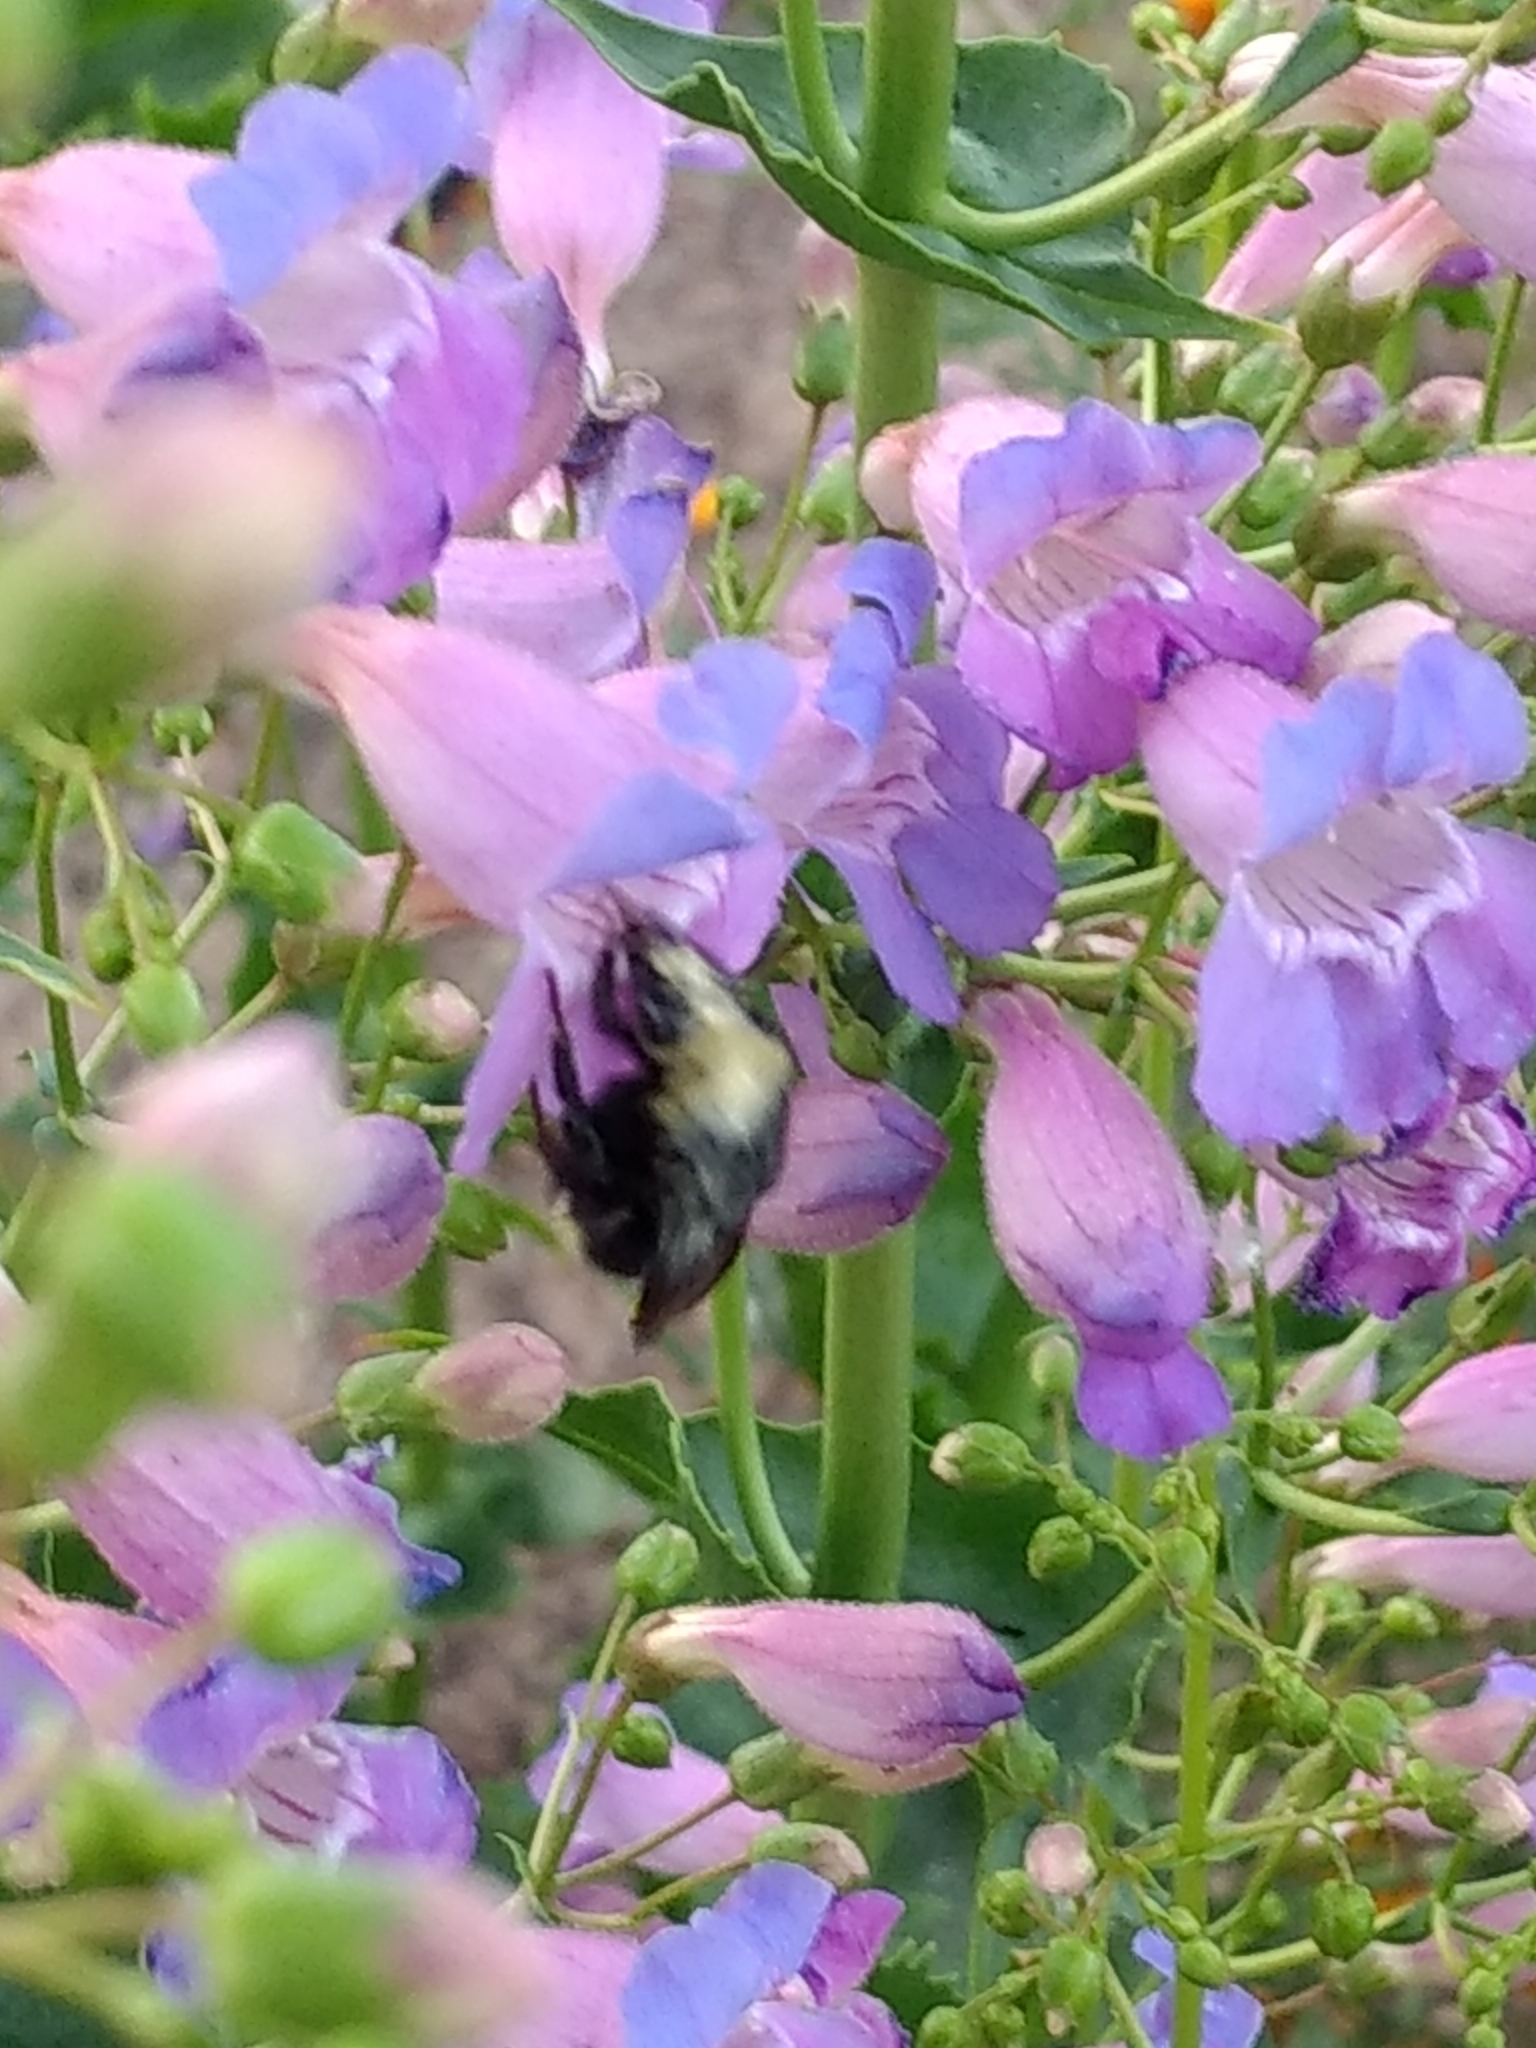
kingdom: Animalia
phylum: Arthropoda
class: Insecta
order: Hymenoptera
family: Apidae
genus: Bombus
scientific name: Bombus vosnesenskii
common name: Vosnesensky bumble bee
